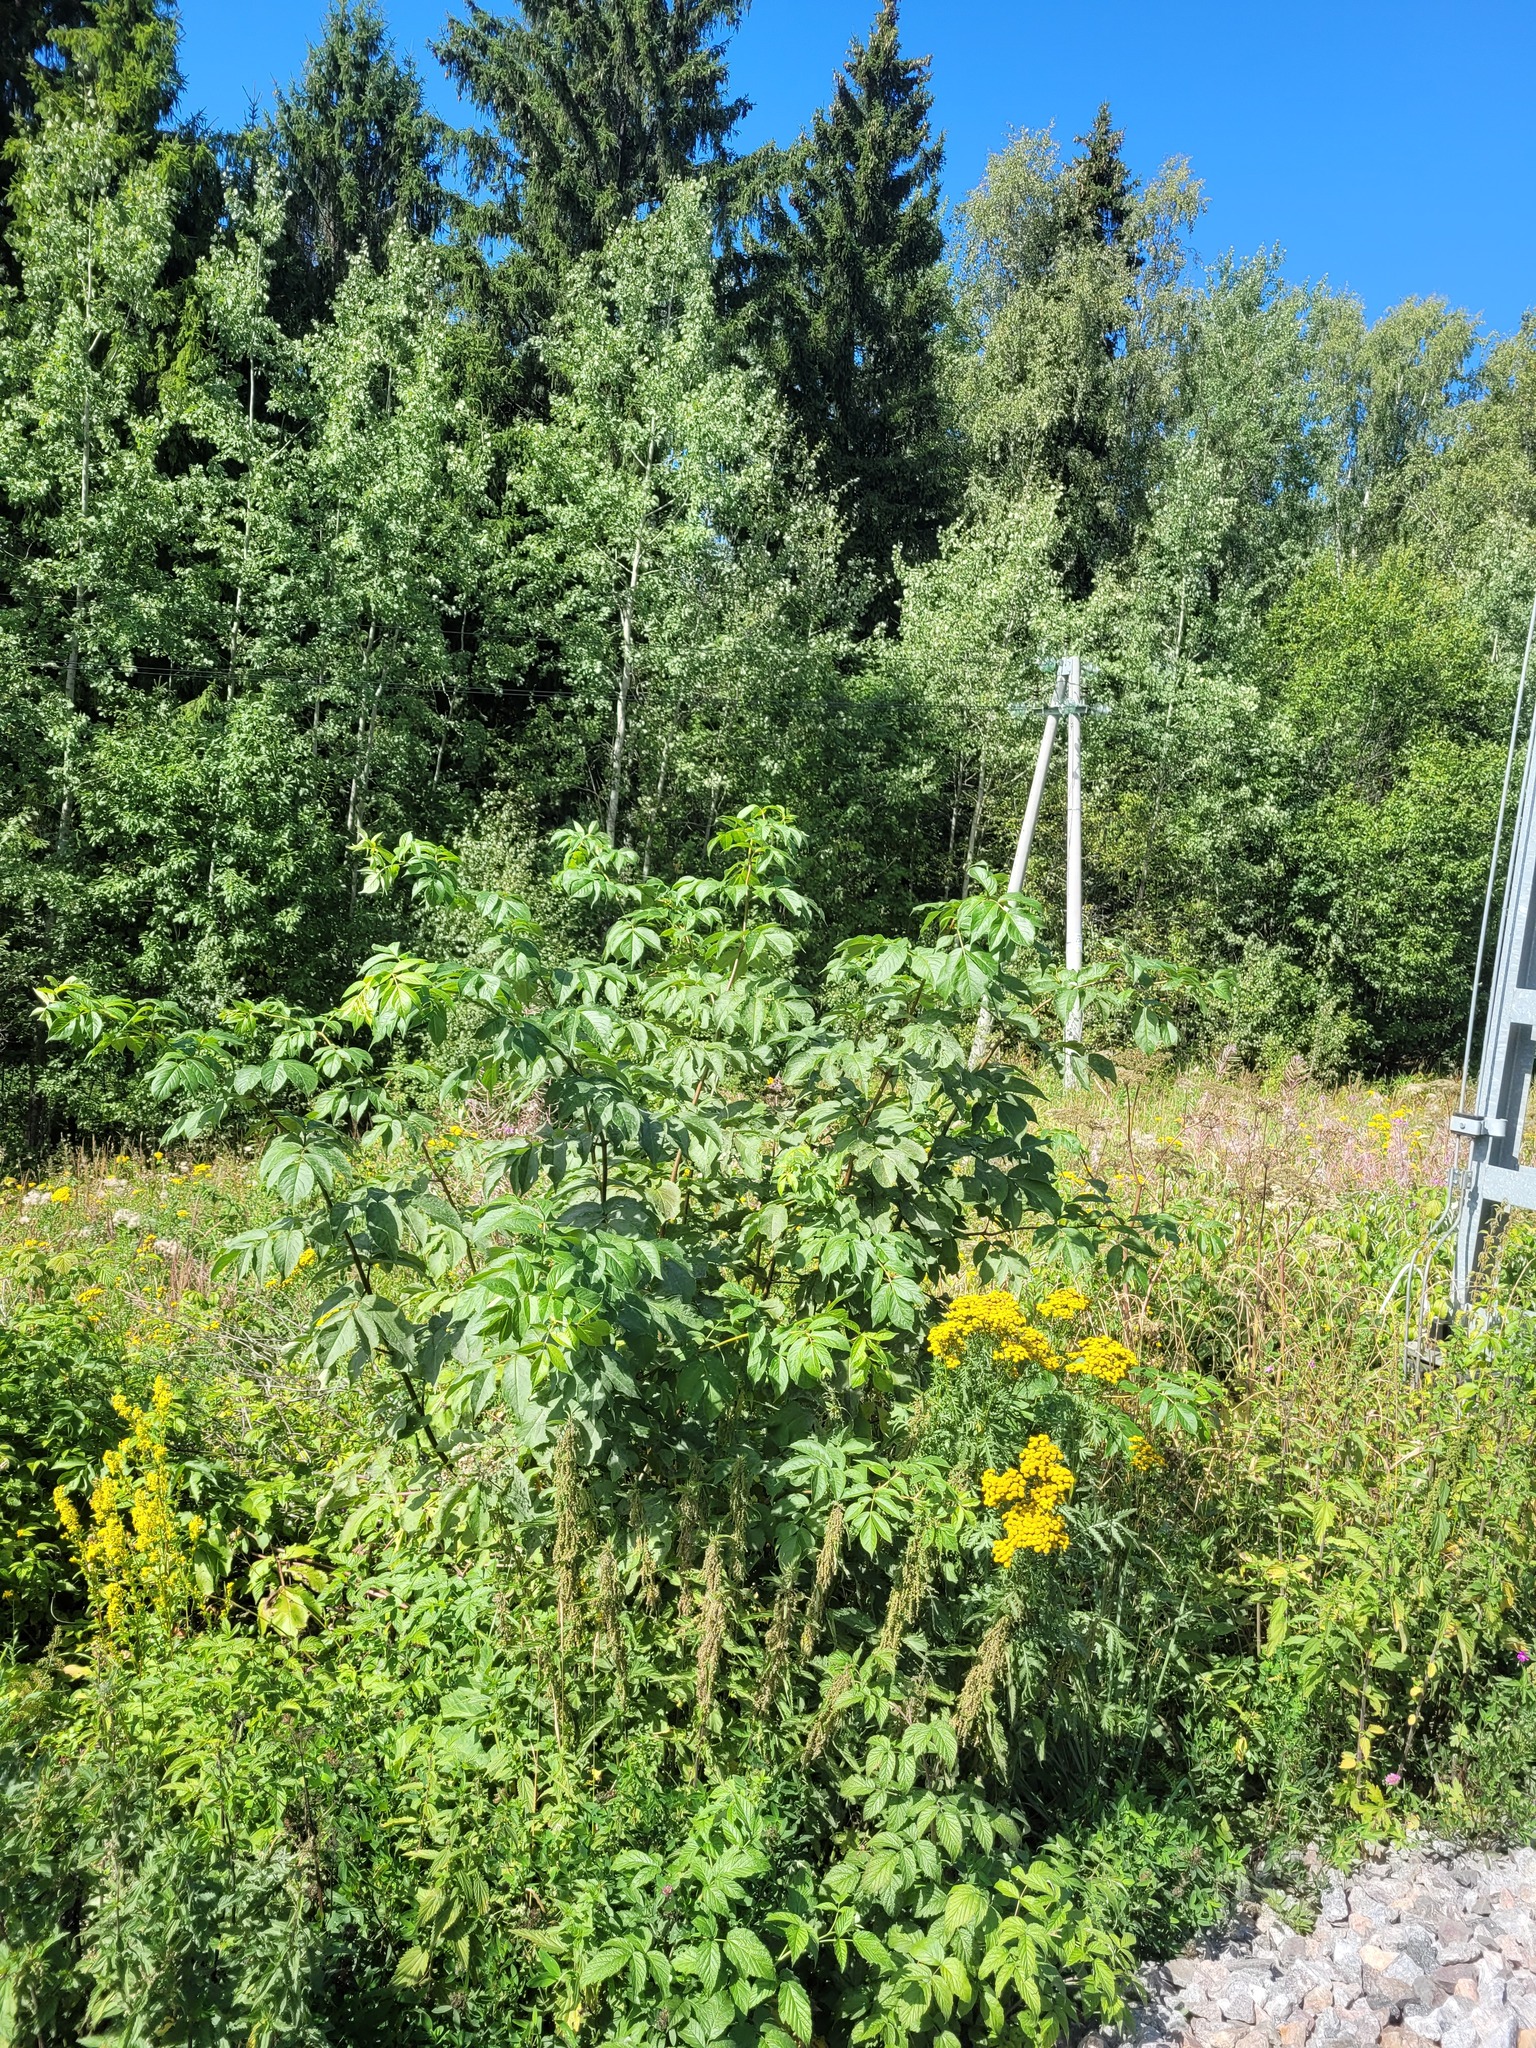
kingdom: Plantae
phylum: Tracheophyta
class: Magnoliopsida
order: Dipsacales
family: Viburnaceae
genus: Sambucus
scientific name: Sambucus racemosa
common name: Red-berried elder
